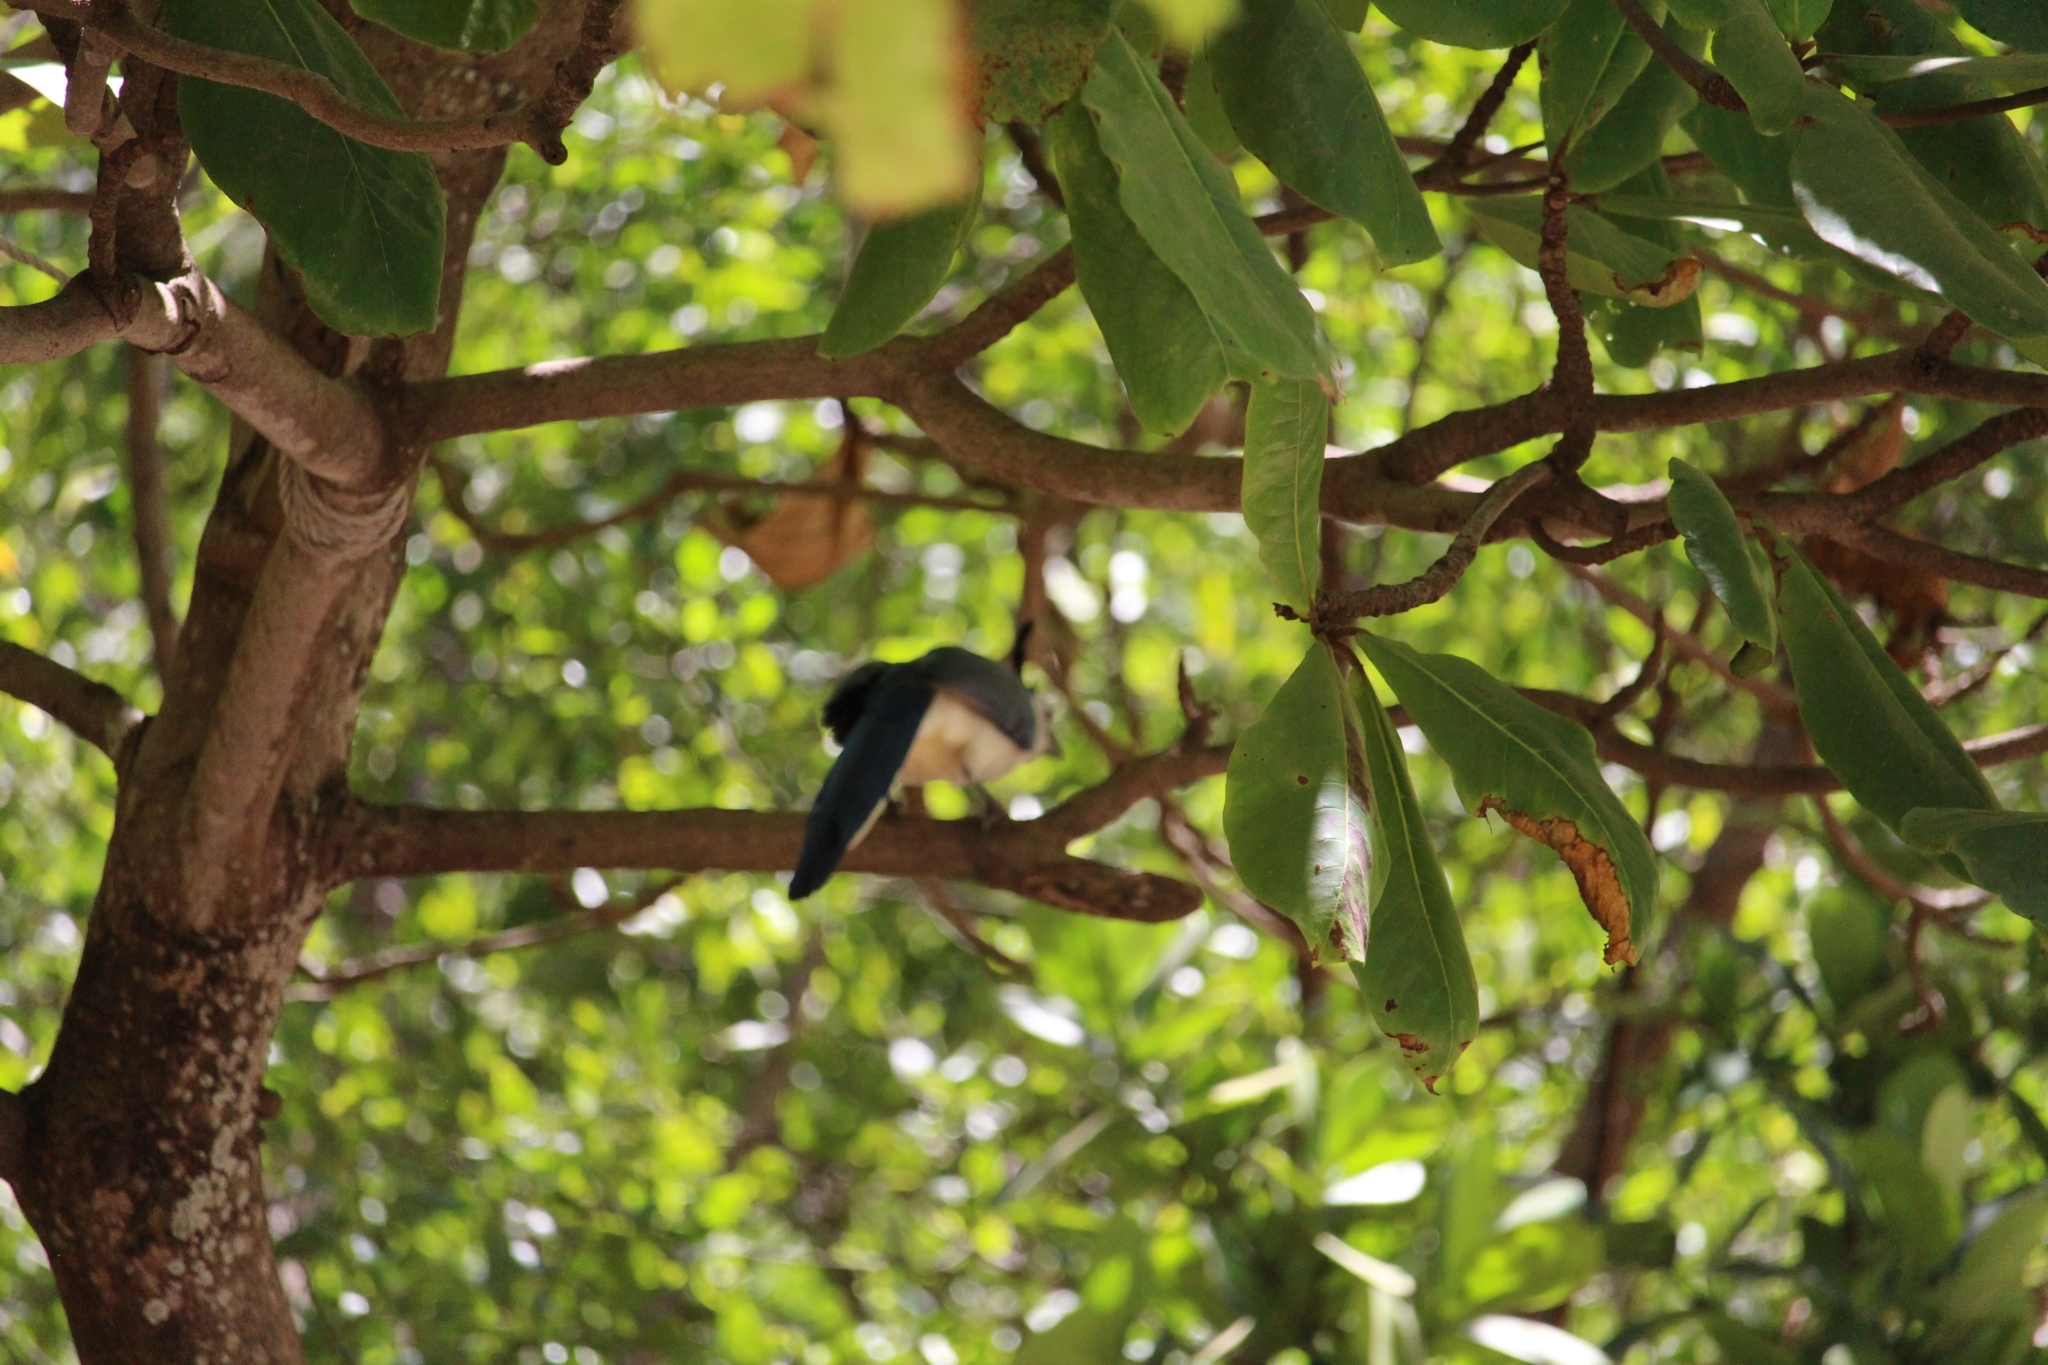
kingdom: Animalia
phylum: Chordata
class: Aves
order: Passeriformes
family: Corvidae
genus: Calocitta
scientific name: Calocitta formosa
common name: White-throated magpie-jay
